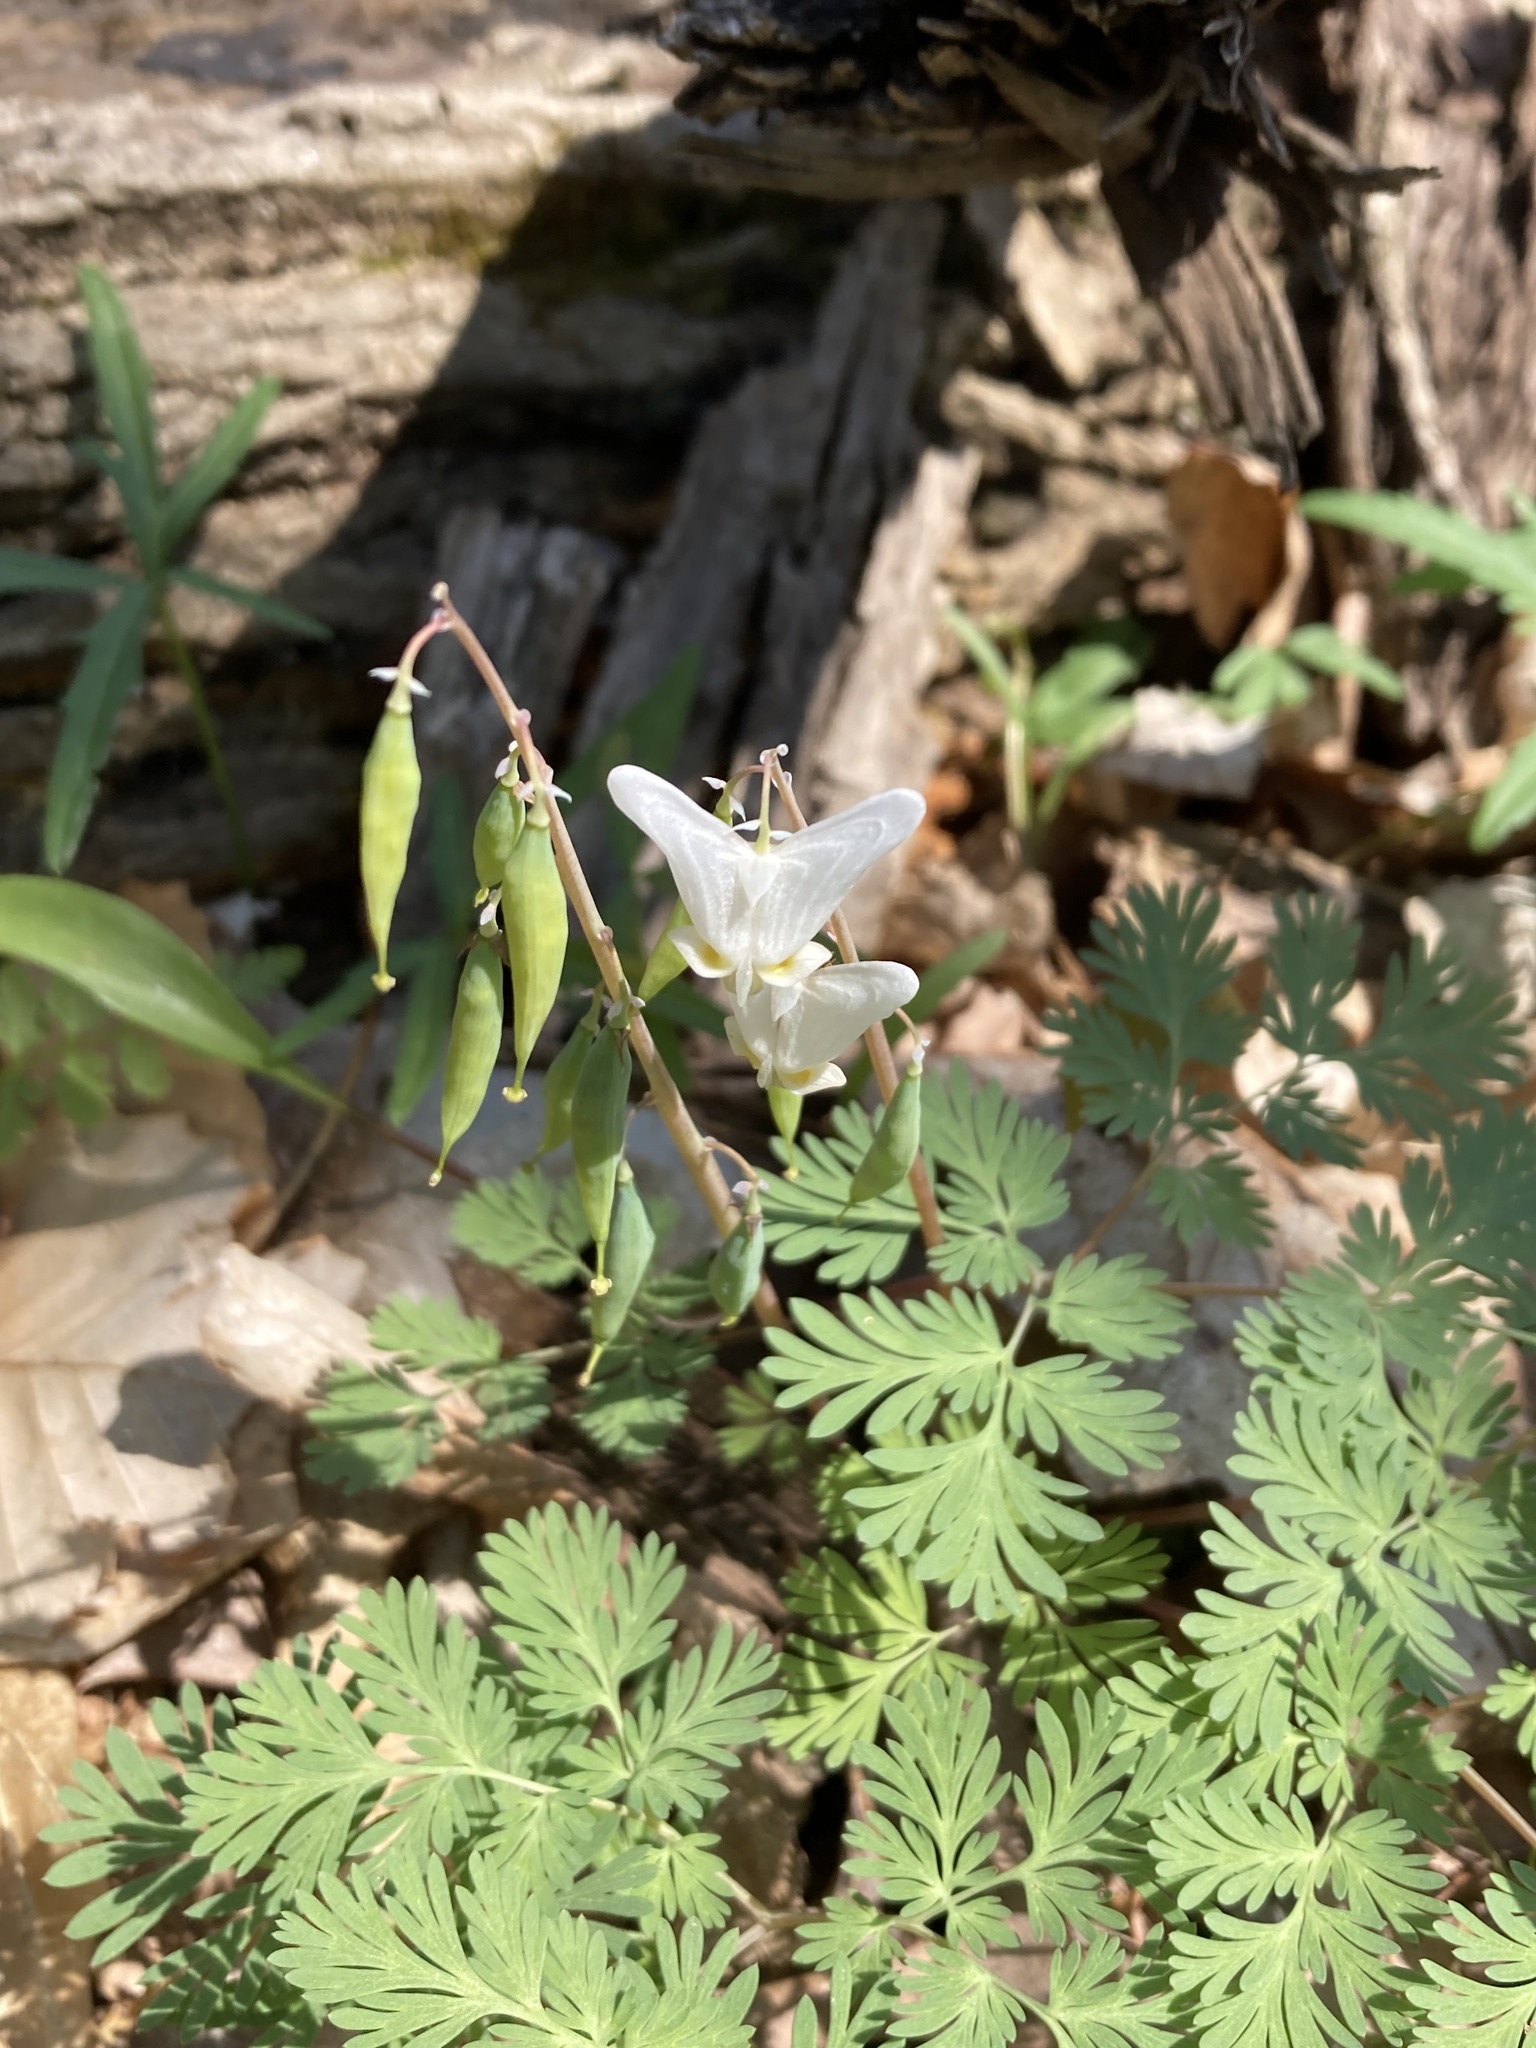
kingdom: Plantae
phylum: Tracheophyta
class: Magnoliopsida
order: Ranunculales
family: Papaveraceae
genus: Dicentra
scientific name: Dicentra cucullaria
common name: Dutchman's breeches
